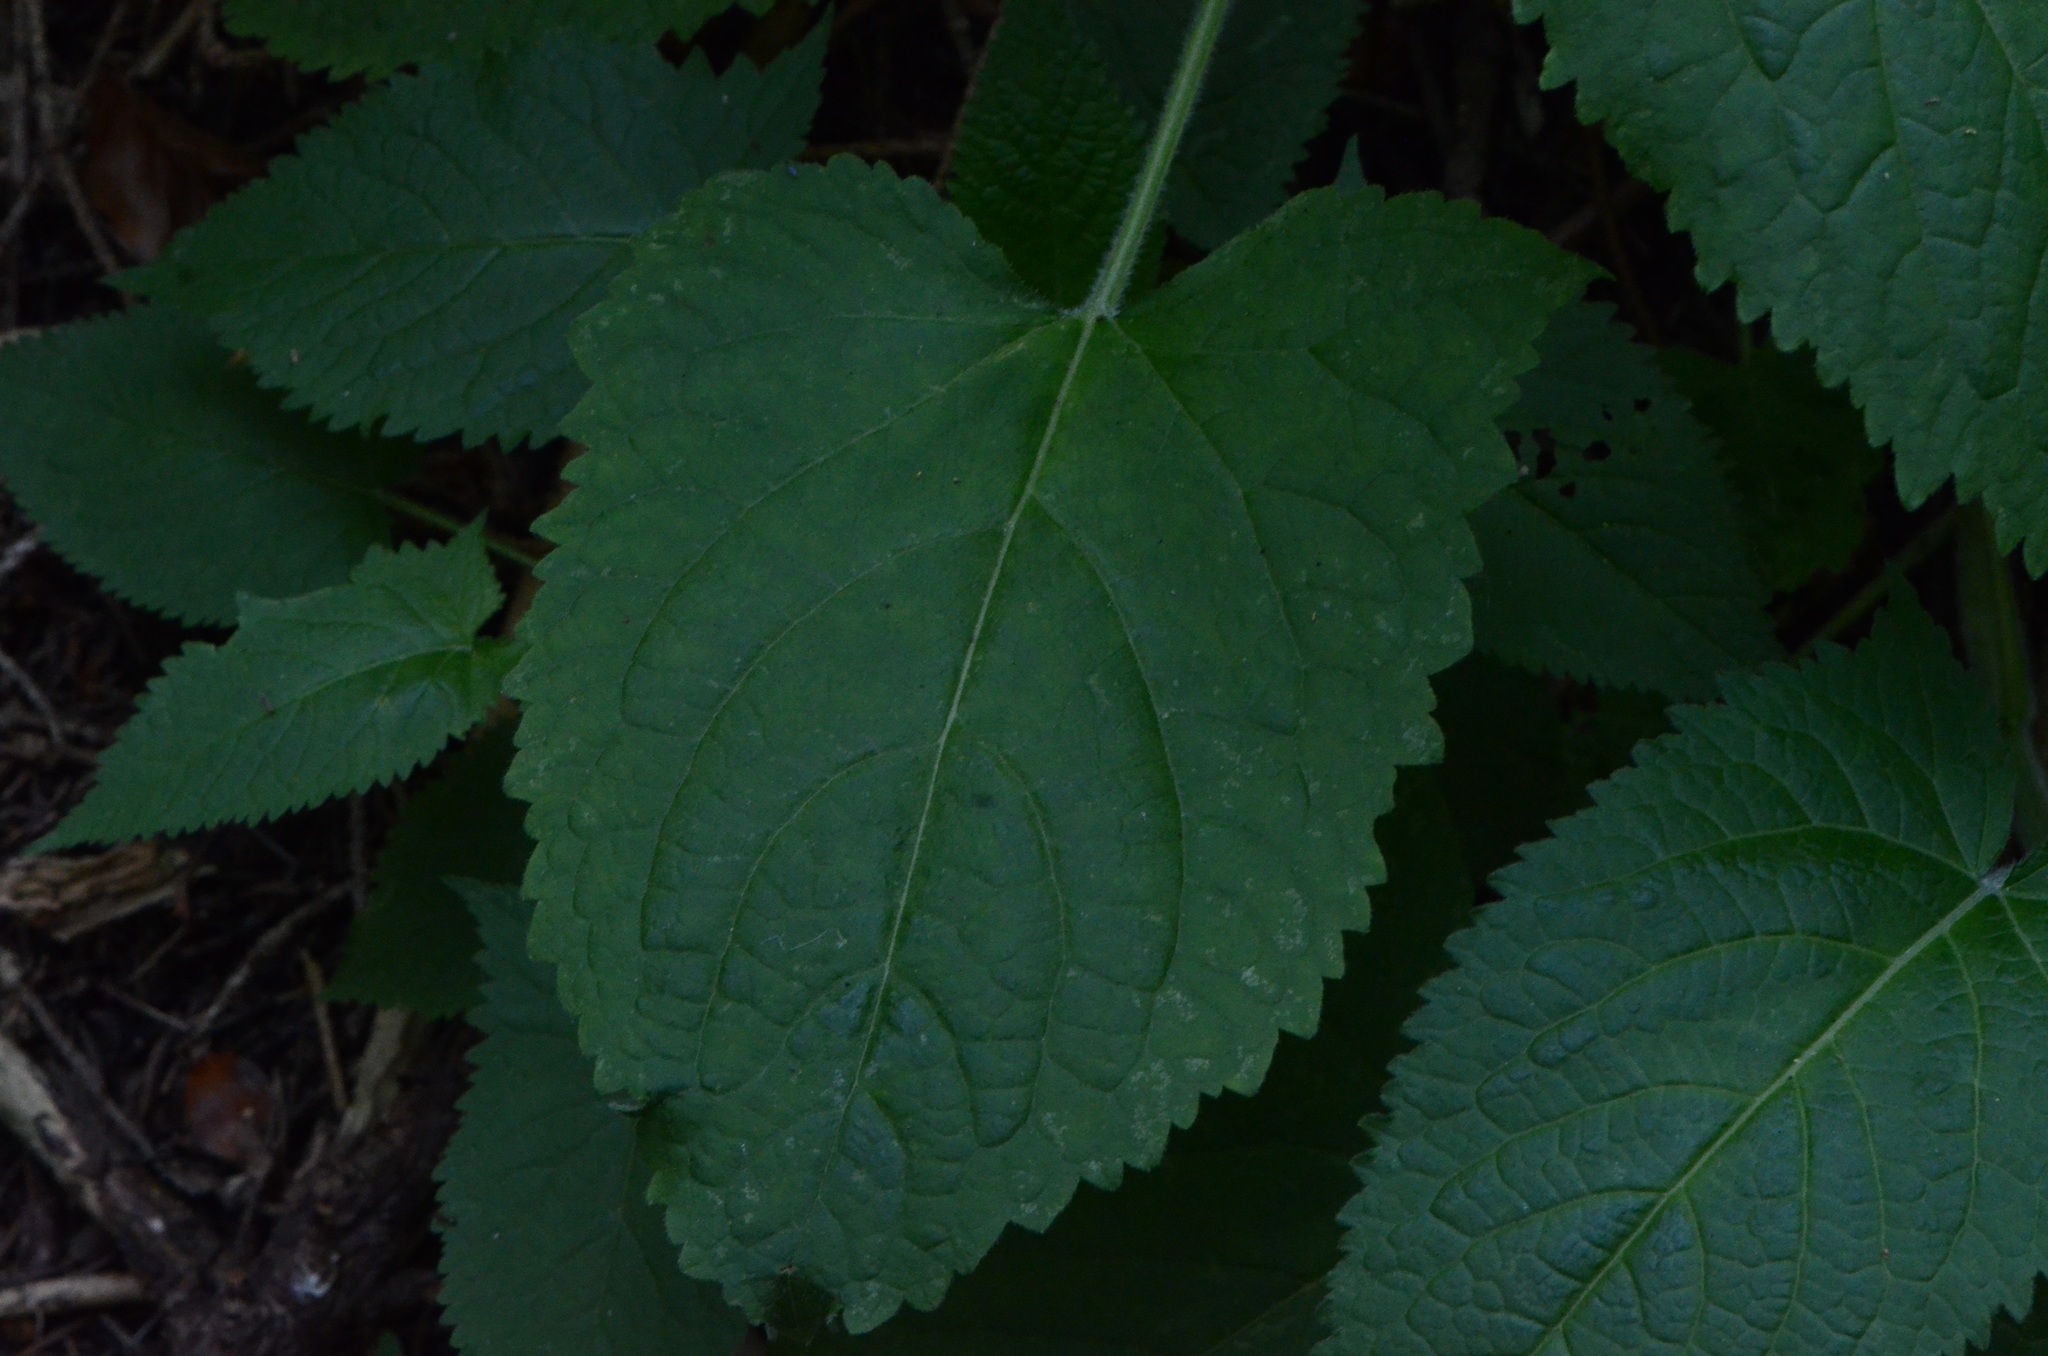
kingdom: Plantae
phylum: Tracheophyta
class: Magnoliopsida
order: Lamiales
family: Lamiaceae
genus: Salvia
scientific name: Salvia glutinosa
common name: Sticky clary
